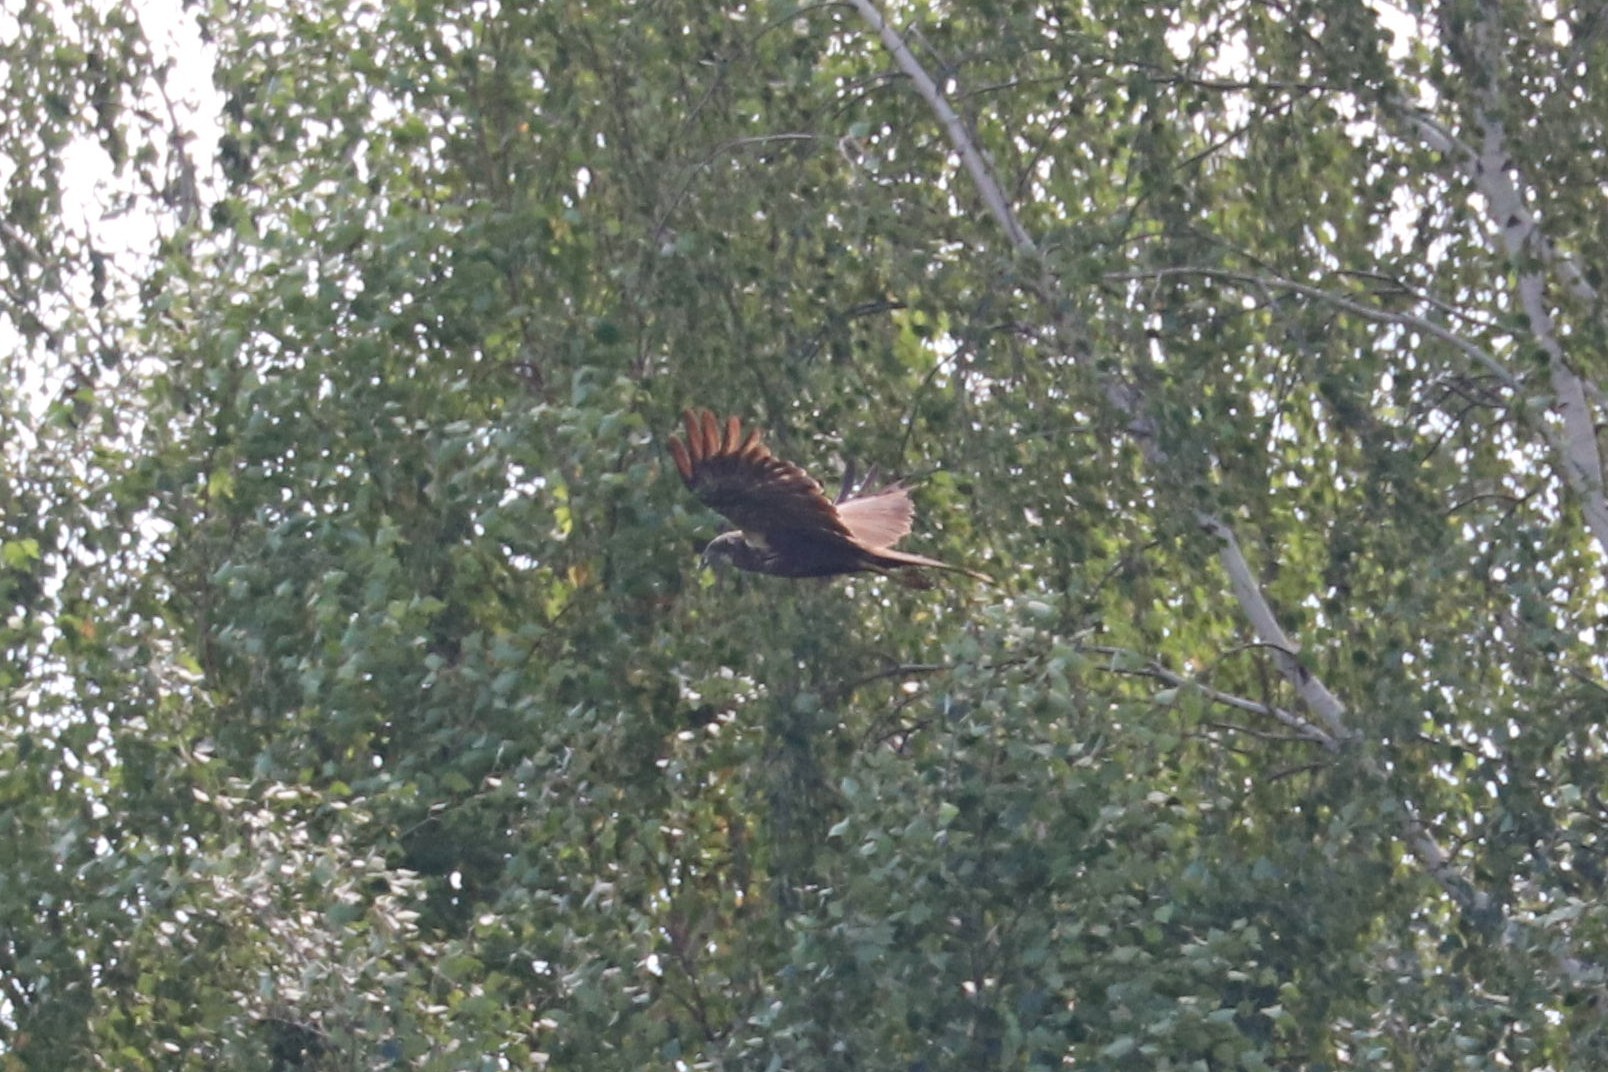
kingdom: Animalia
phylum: Chordata
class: Aves
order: Accipitriformes
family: Accipitridae
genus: Circus
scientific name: Circus aeruginosus
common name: Western marsh harrier
